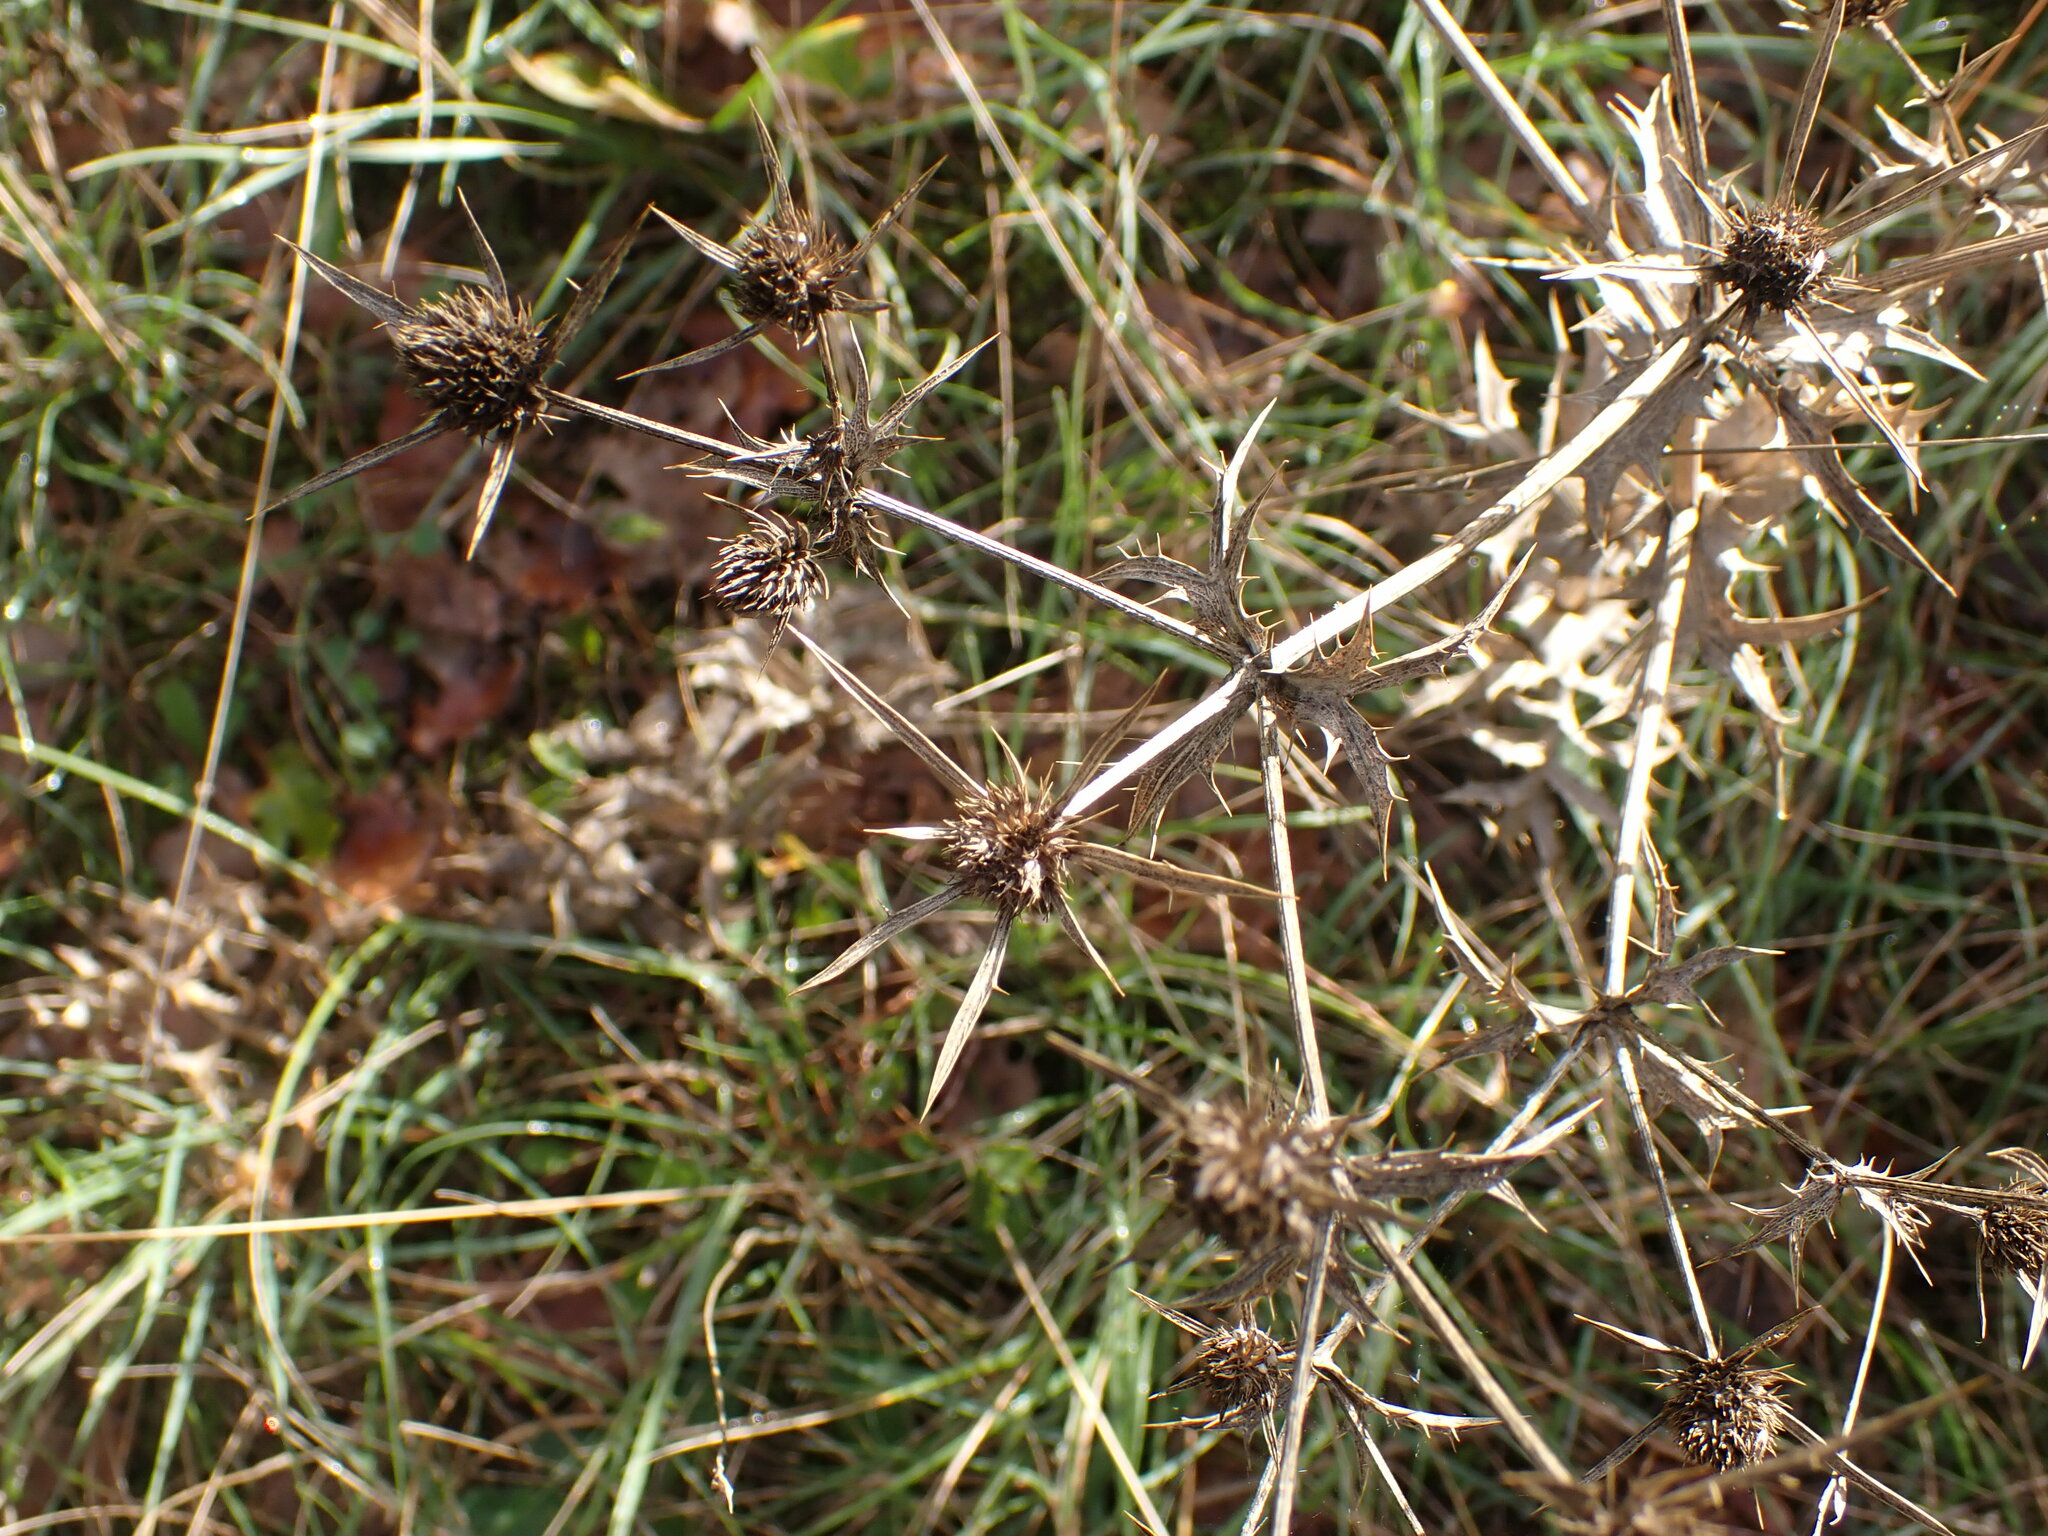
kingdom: Plantae
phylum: Tracheophyta
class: Magnoliopsida
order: Apiales
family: Apiaceae
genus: Eryngium
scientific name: Eryngium campestre
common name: Field eryngo
